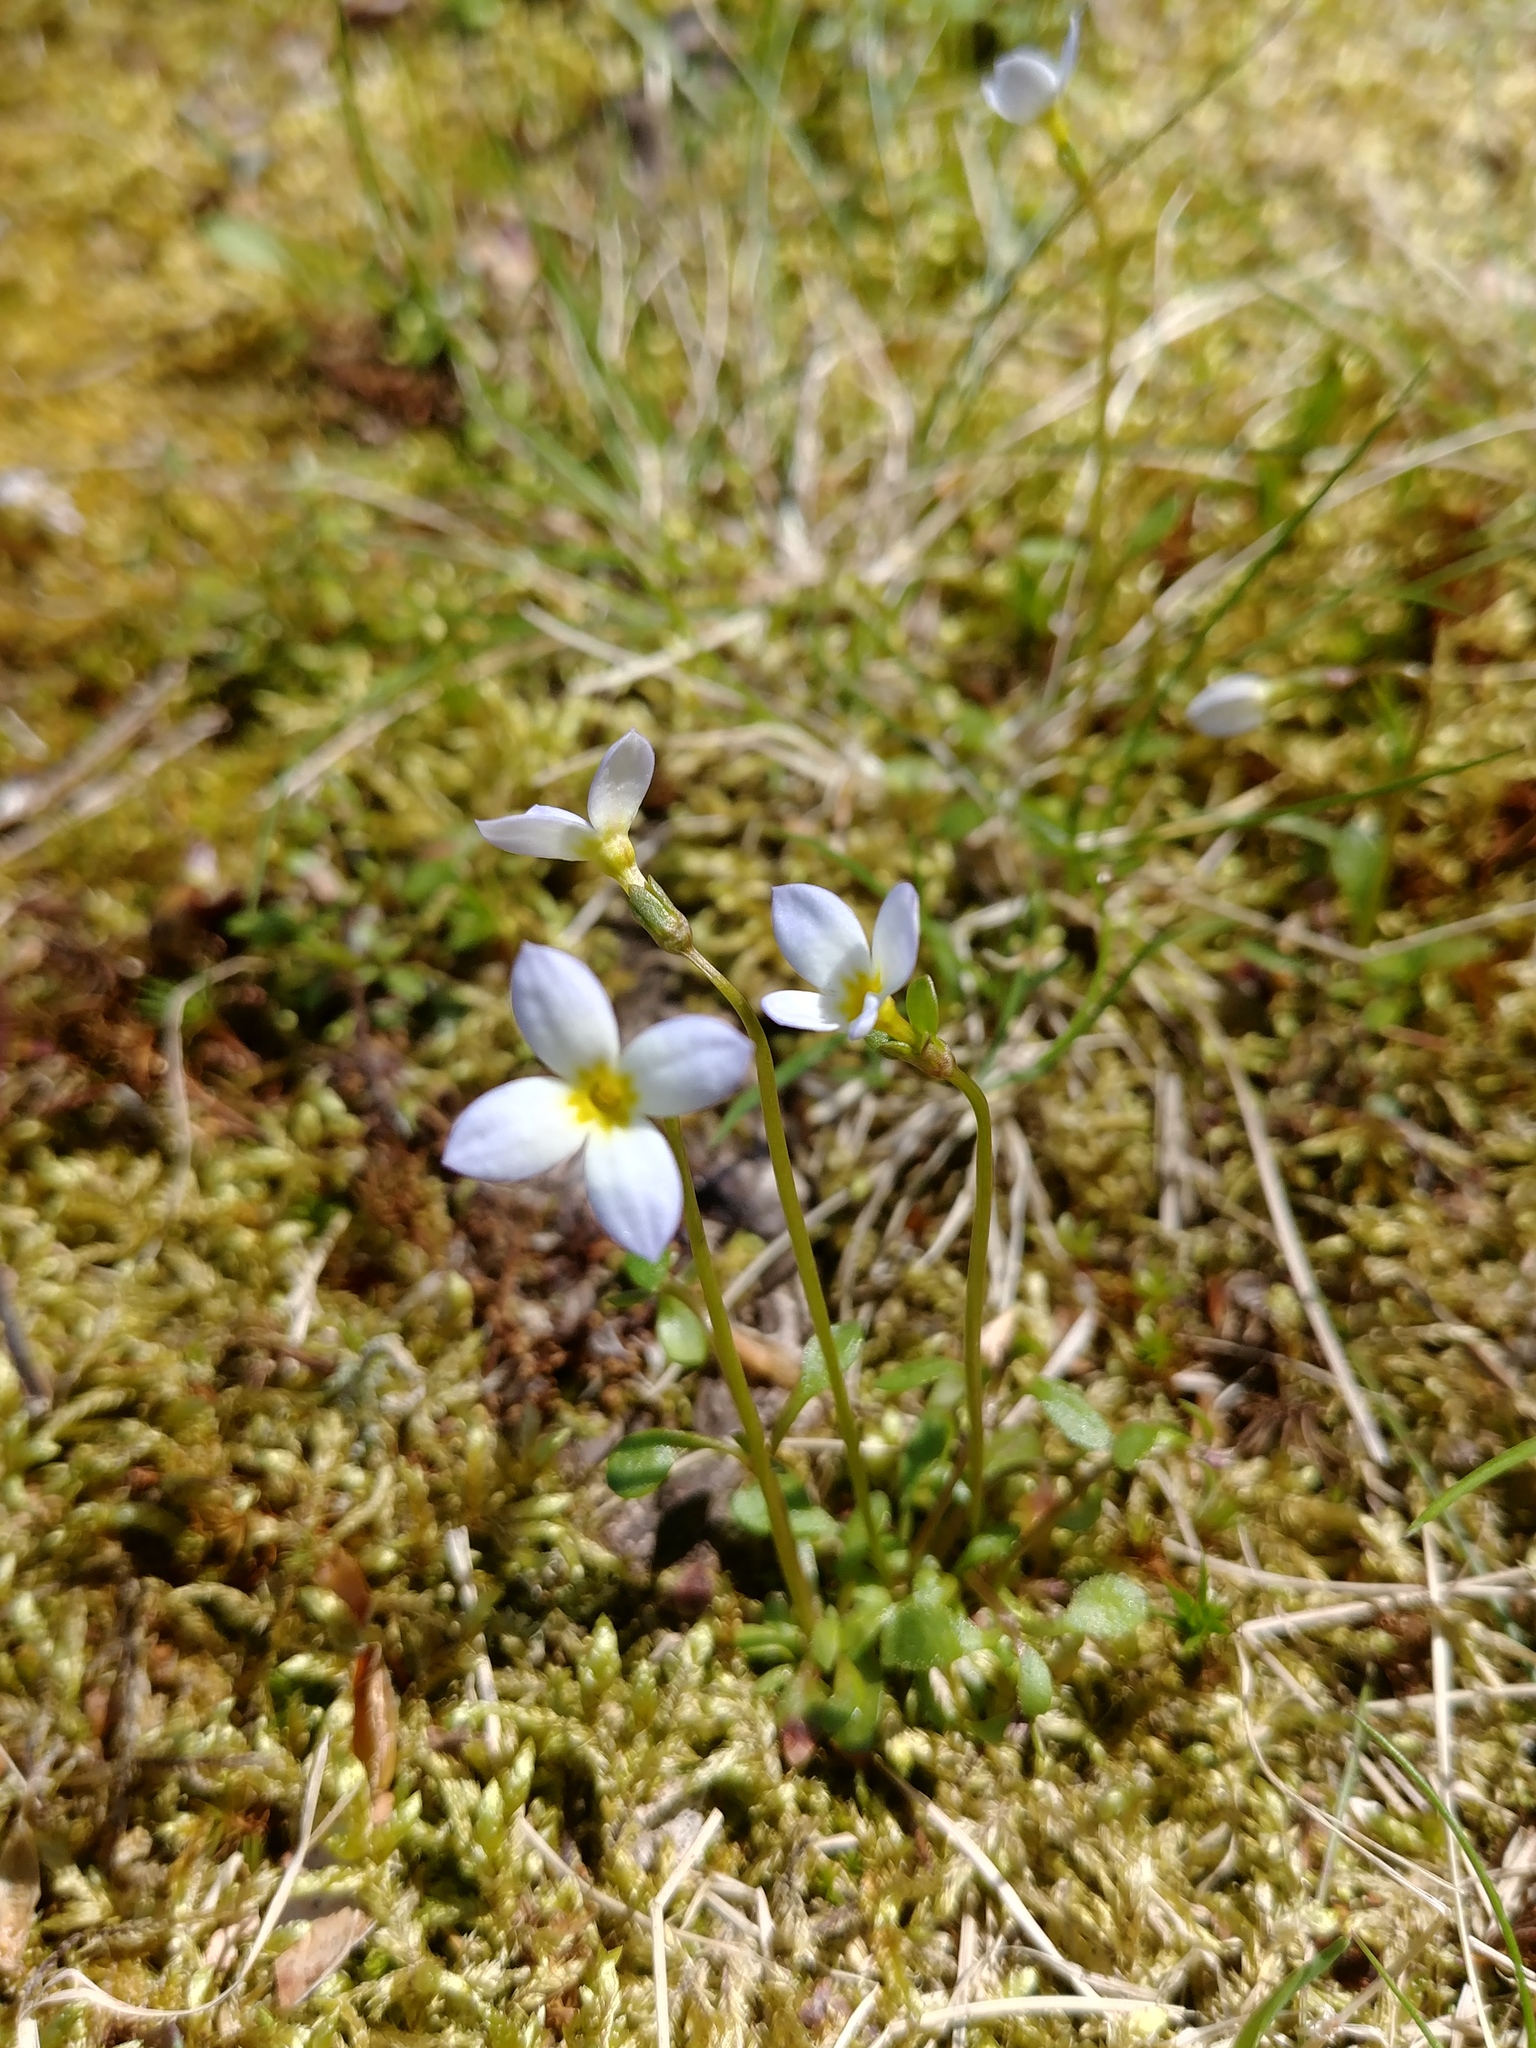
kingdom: Plantae
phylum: Tracheophyta
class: Magnoliopsida
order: Gentianales
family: Rubiaceae
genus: Houstonia
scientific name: Houstonia caerulea
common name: Bluets
